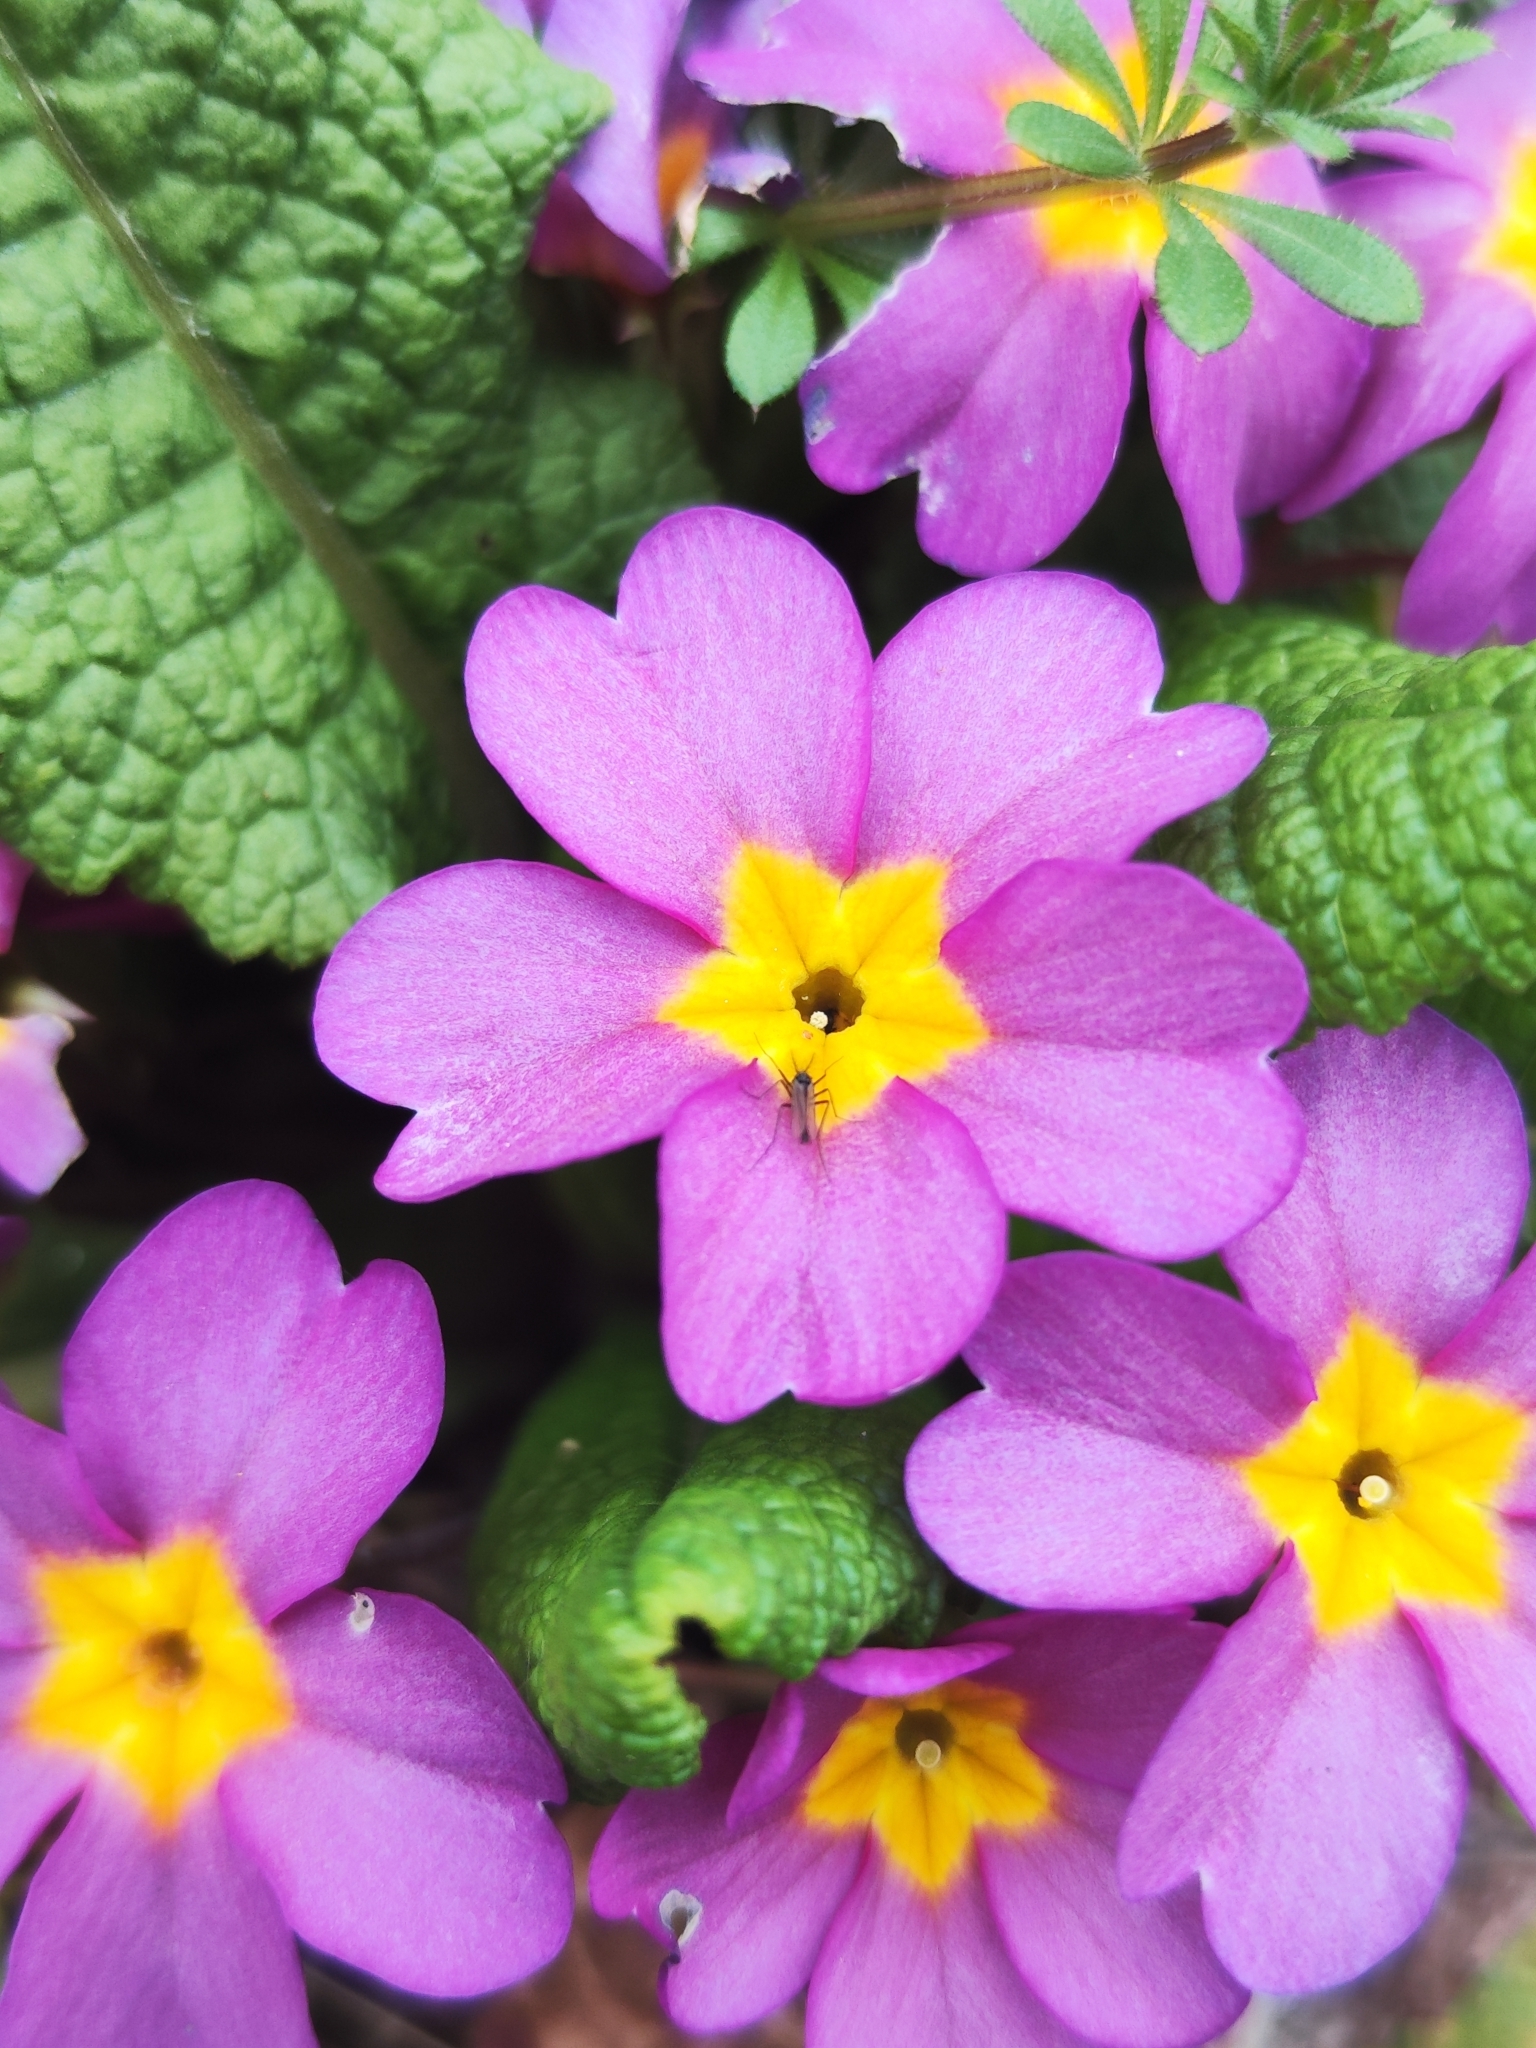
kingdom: Plantae
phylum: Tracheophyta
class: Magnoliopsida
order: Ericales
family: Primulaceae
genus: Primula
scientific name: Primula vulgaris
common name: Primrose
